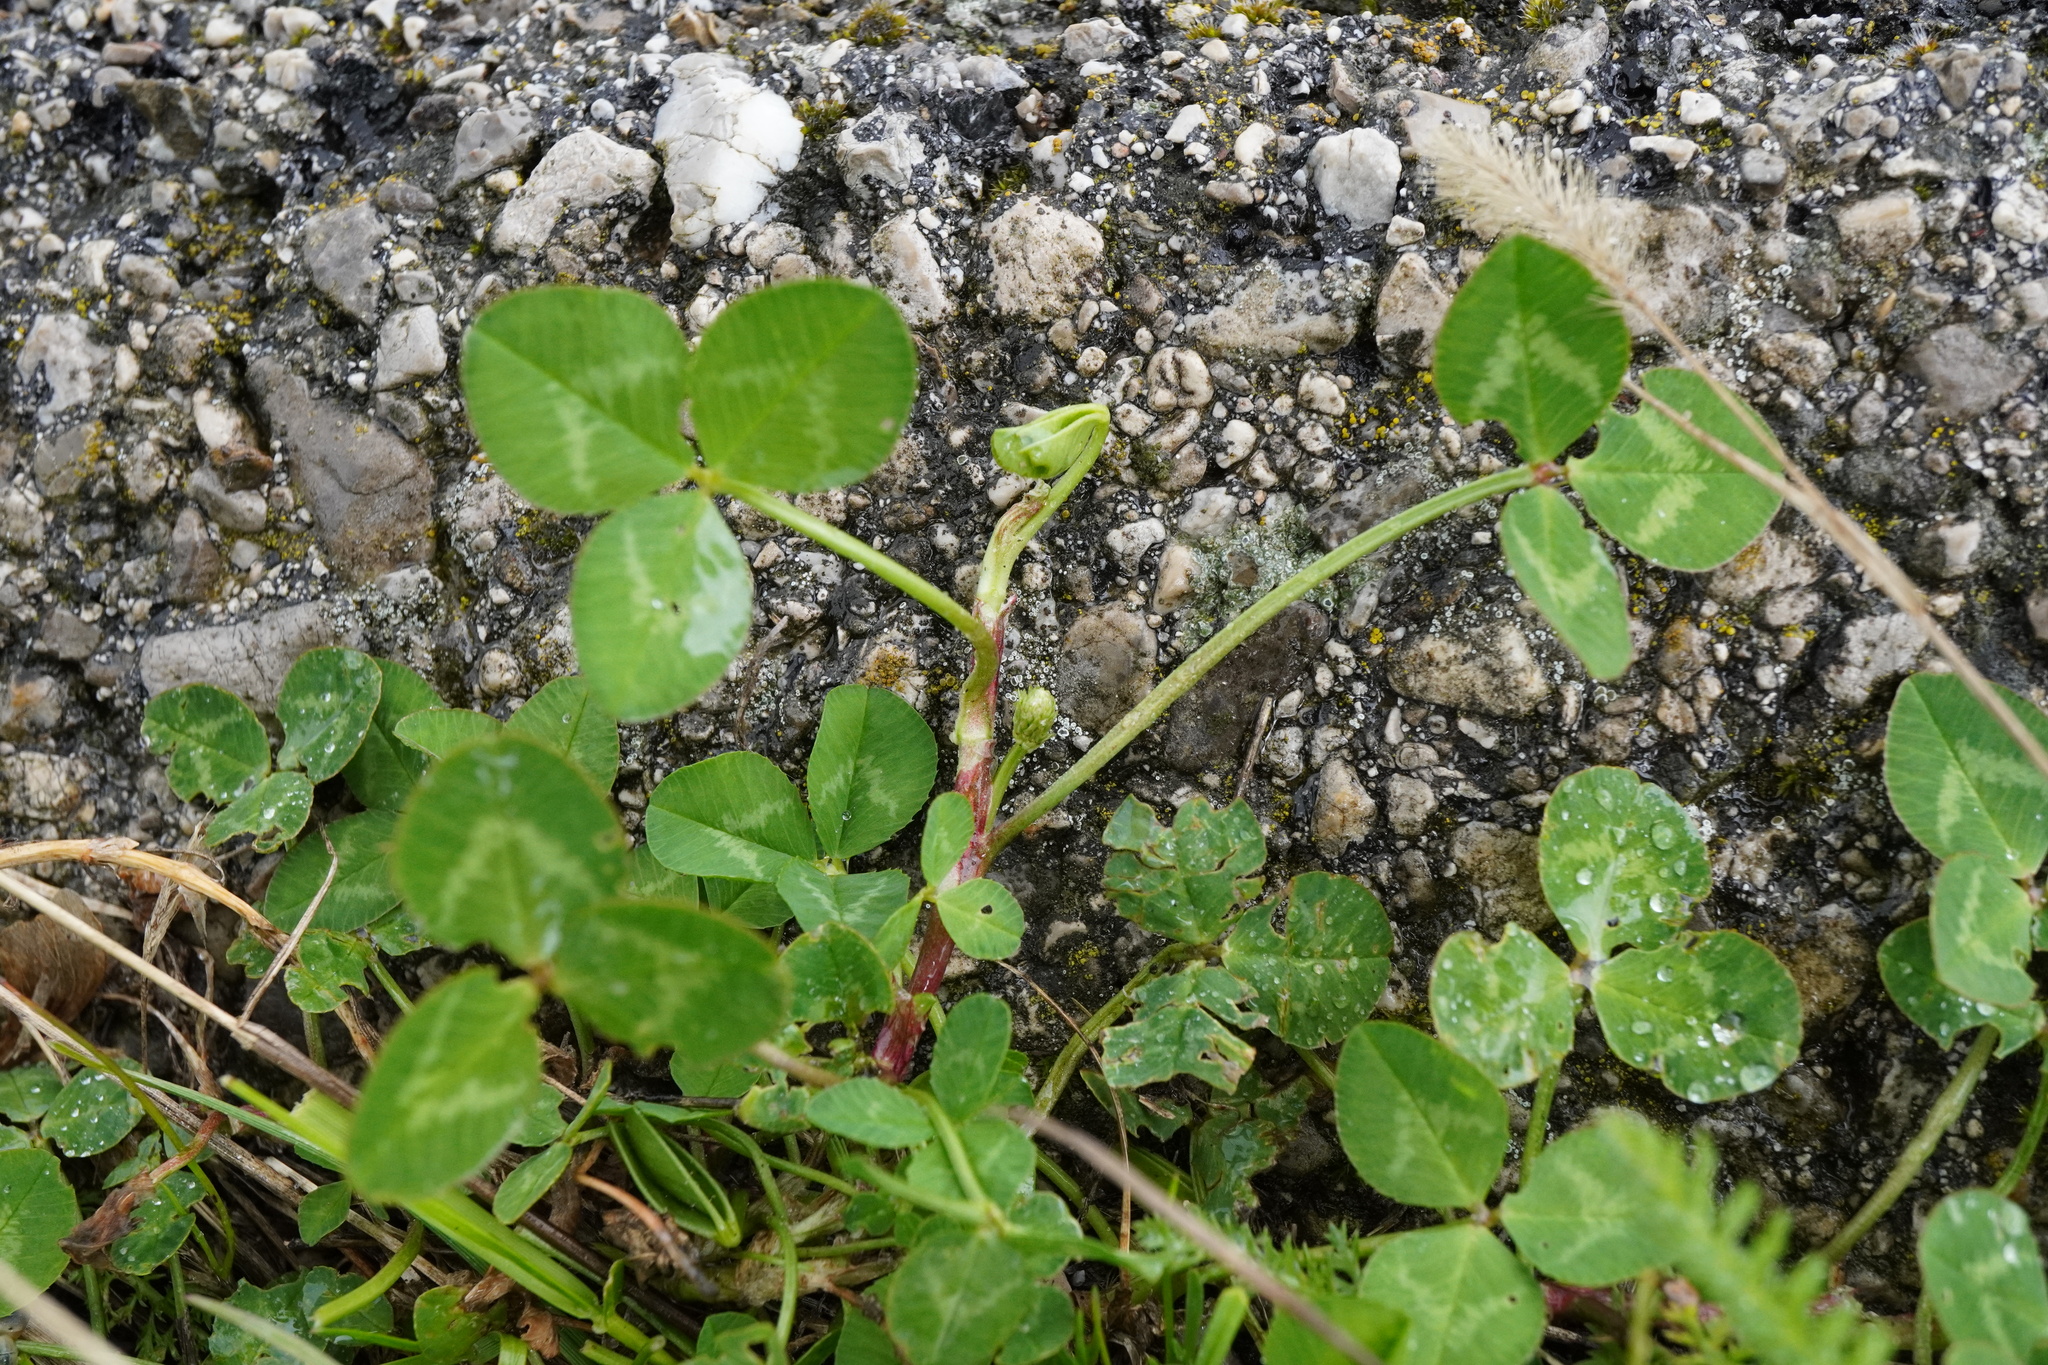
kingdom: Plantae
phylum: Tracheophyta
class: Magnoliopsida
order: Fabales
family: Fabaceae
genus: Trifolium
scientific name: Trifolium repens
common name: White clover
